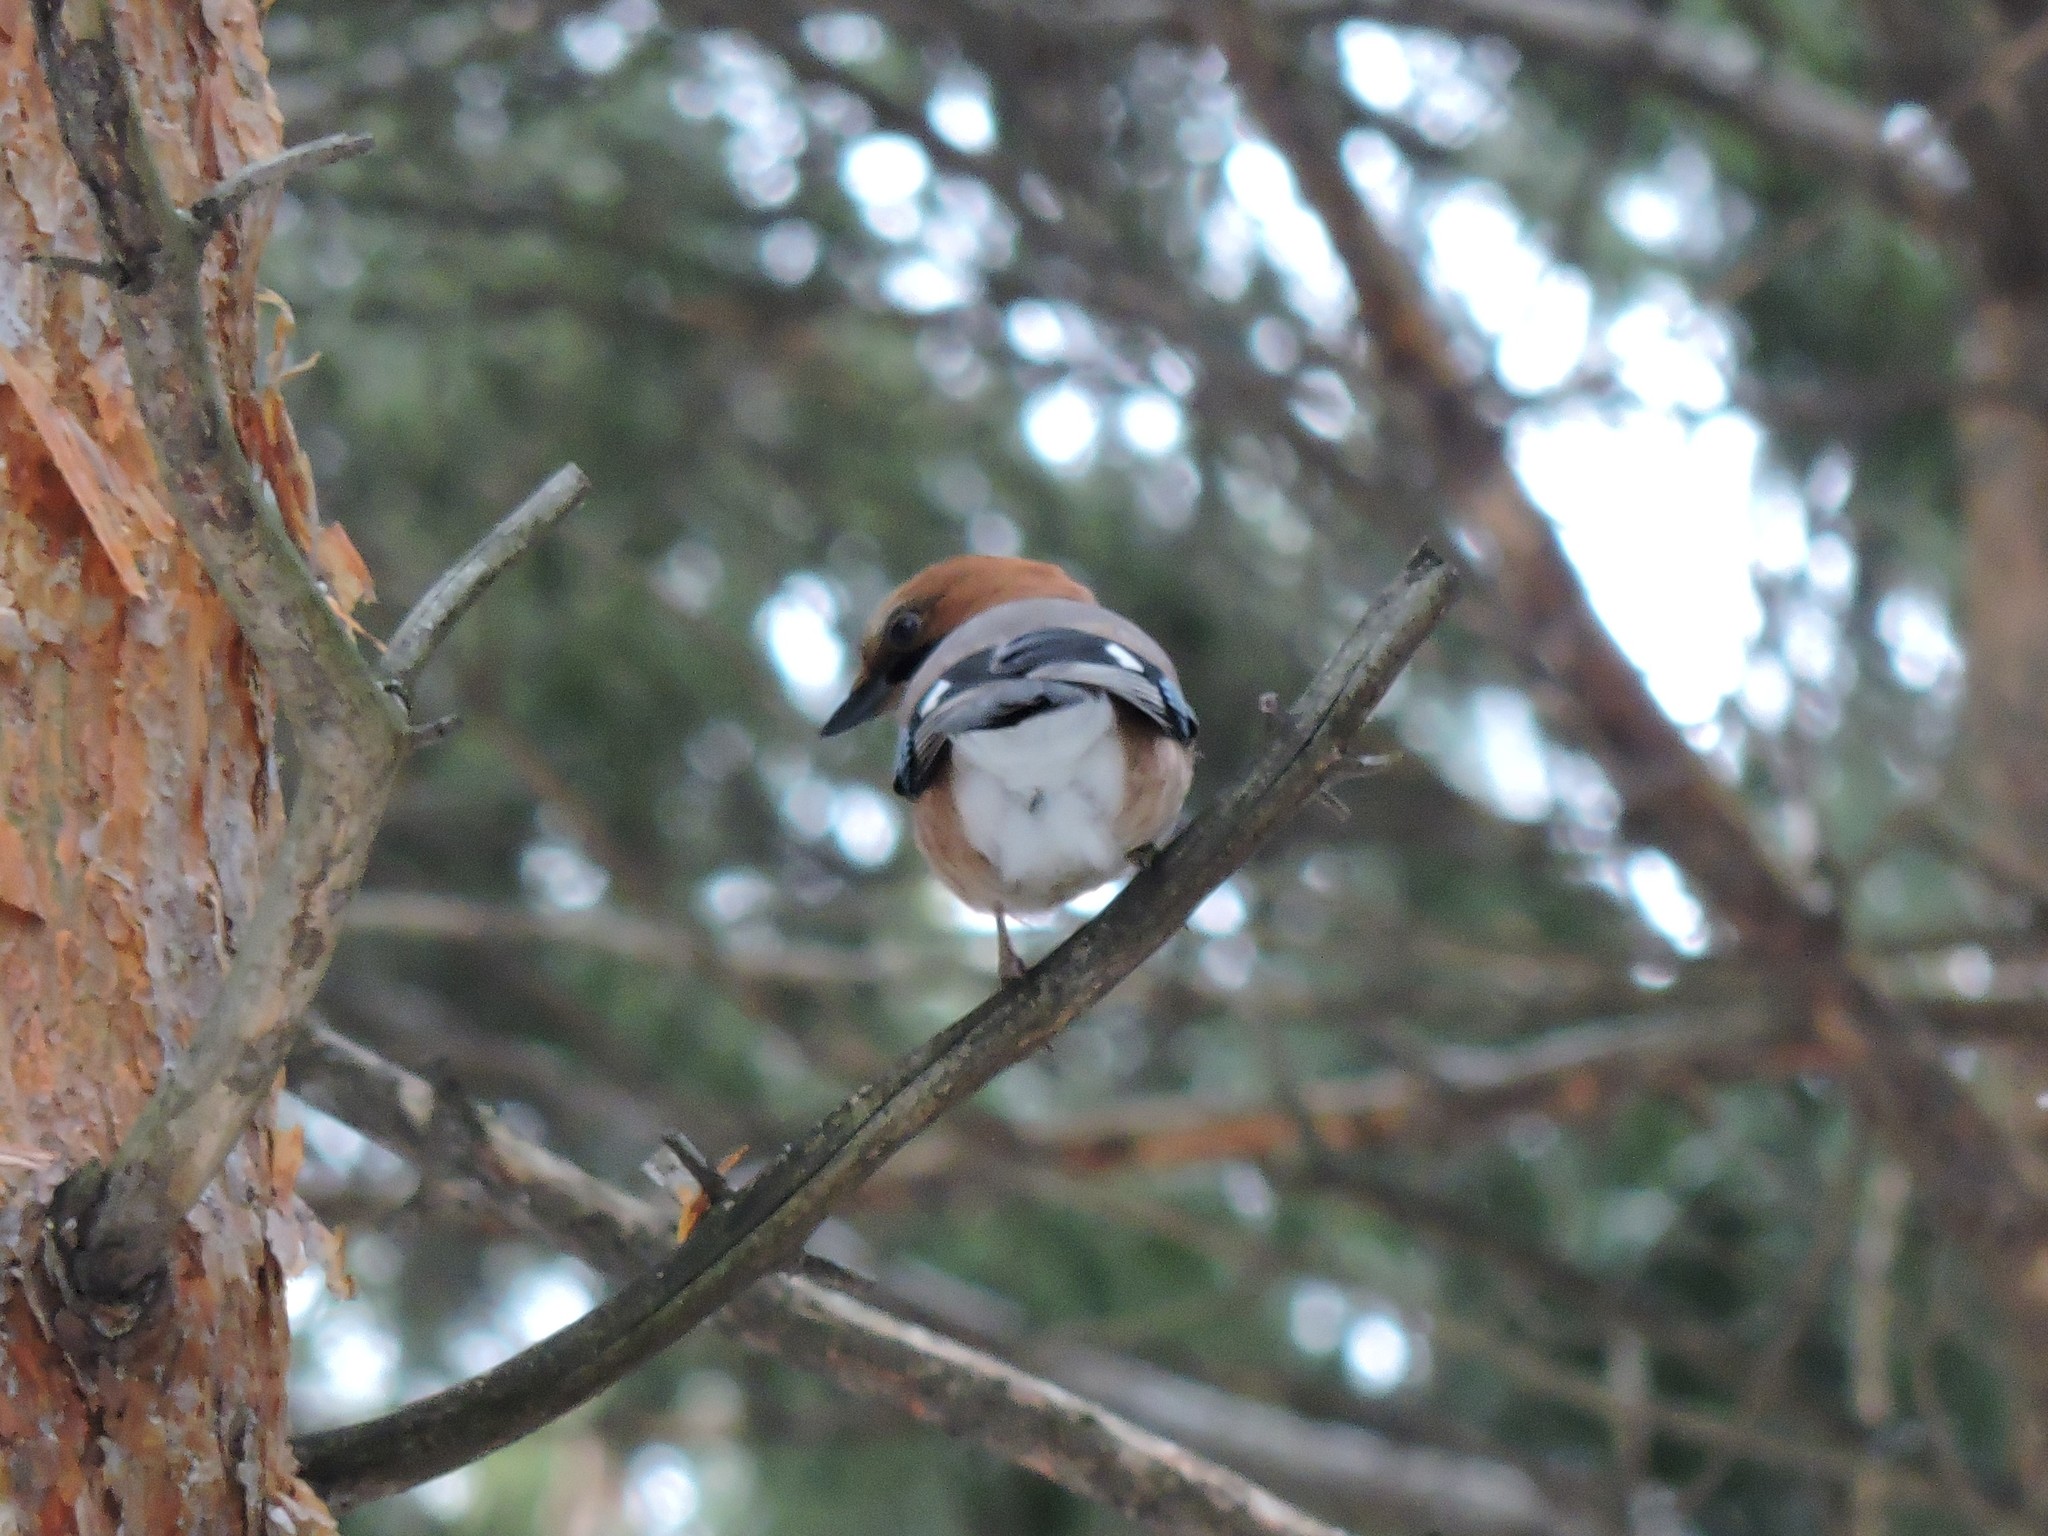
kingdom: Animalia
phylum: Chordata
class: Aves
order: Passeriformes
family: Corvidae
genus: Garrulus
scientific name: Garrulus glandarius
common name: Eurasian jay
